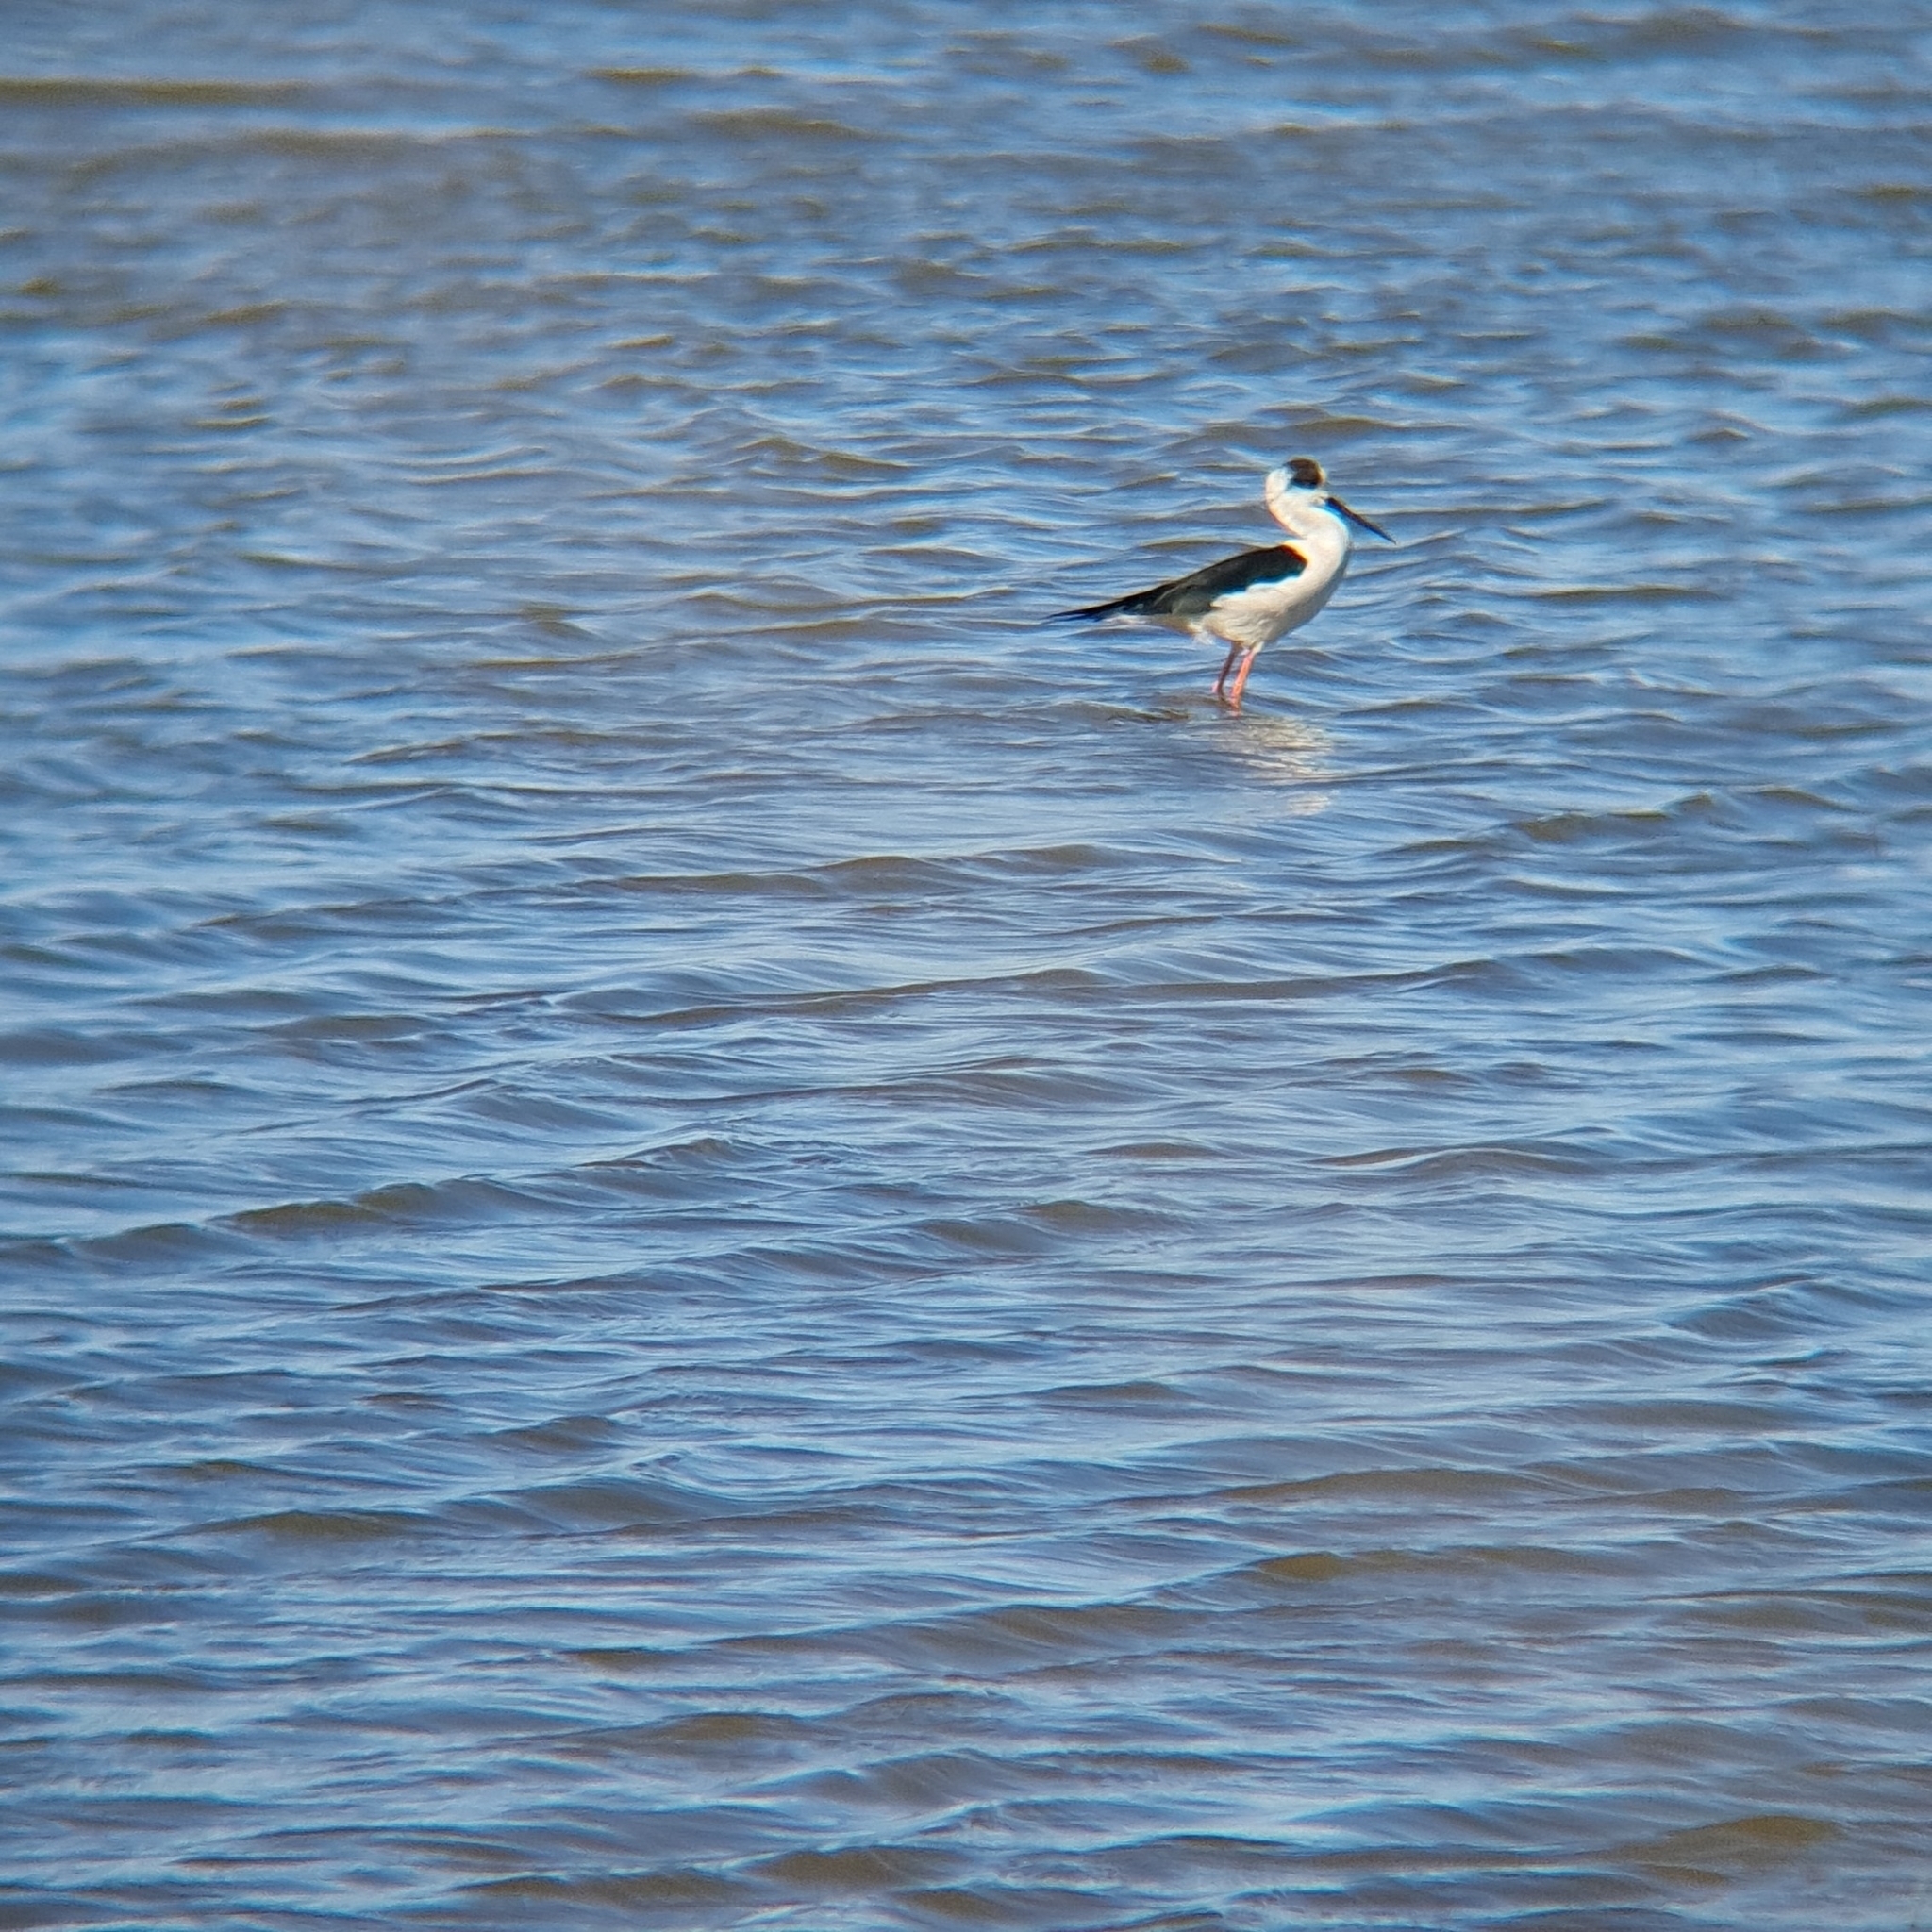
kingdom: Animalia
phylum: Chordata
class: Aves
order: Charadriiformes
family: Recurvirostridae
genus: Himantopus
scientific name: Himantopus himantopus
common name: Black-winged stilt
